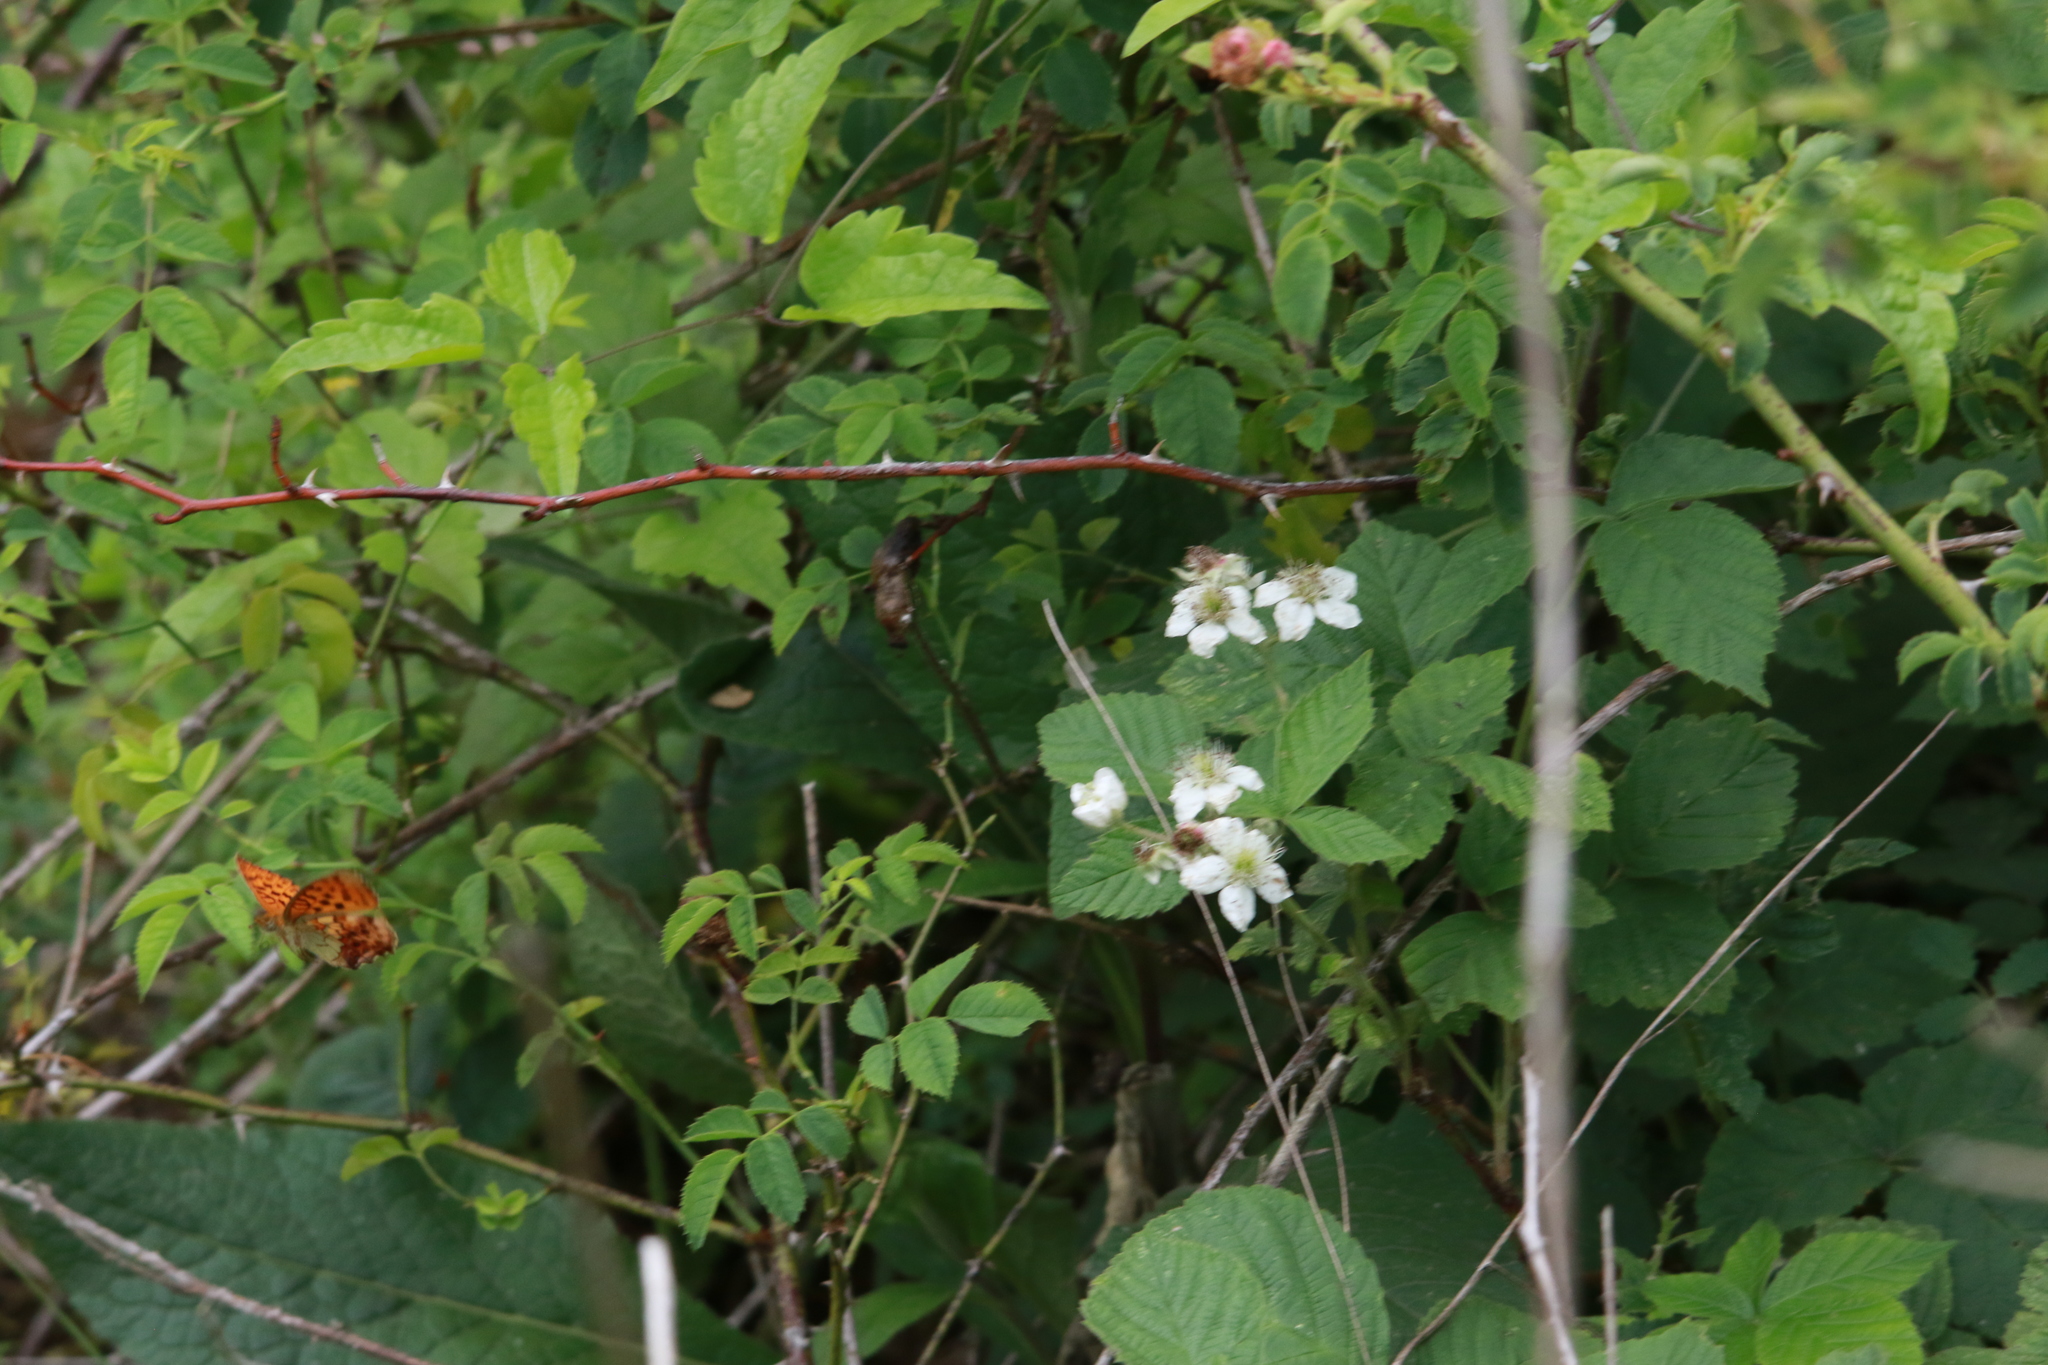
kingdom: Animalia
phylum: Arthropoda
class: Insecta
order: Lepidoptera
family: Nymphalidae
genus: Brenthis
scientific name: Brenthis daphne
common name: Marbled fritillary
